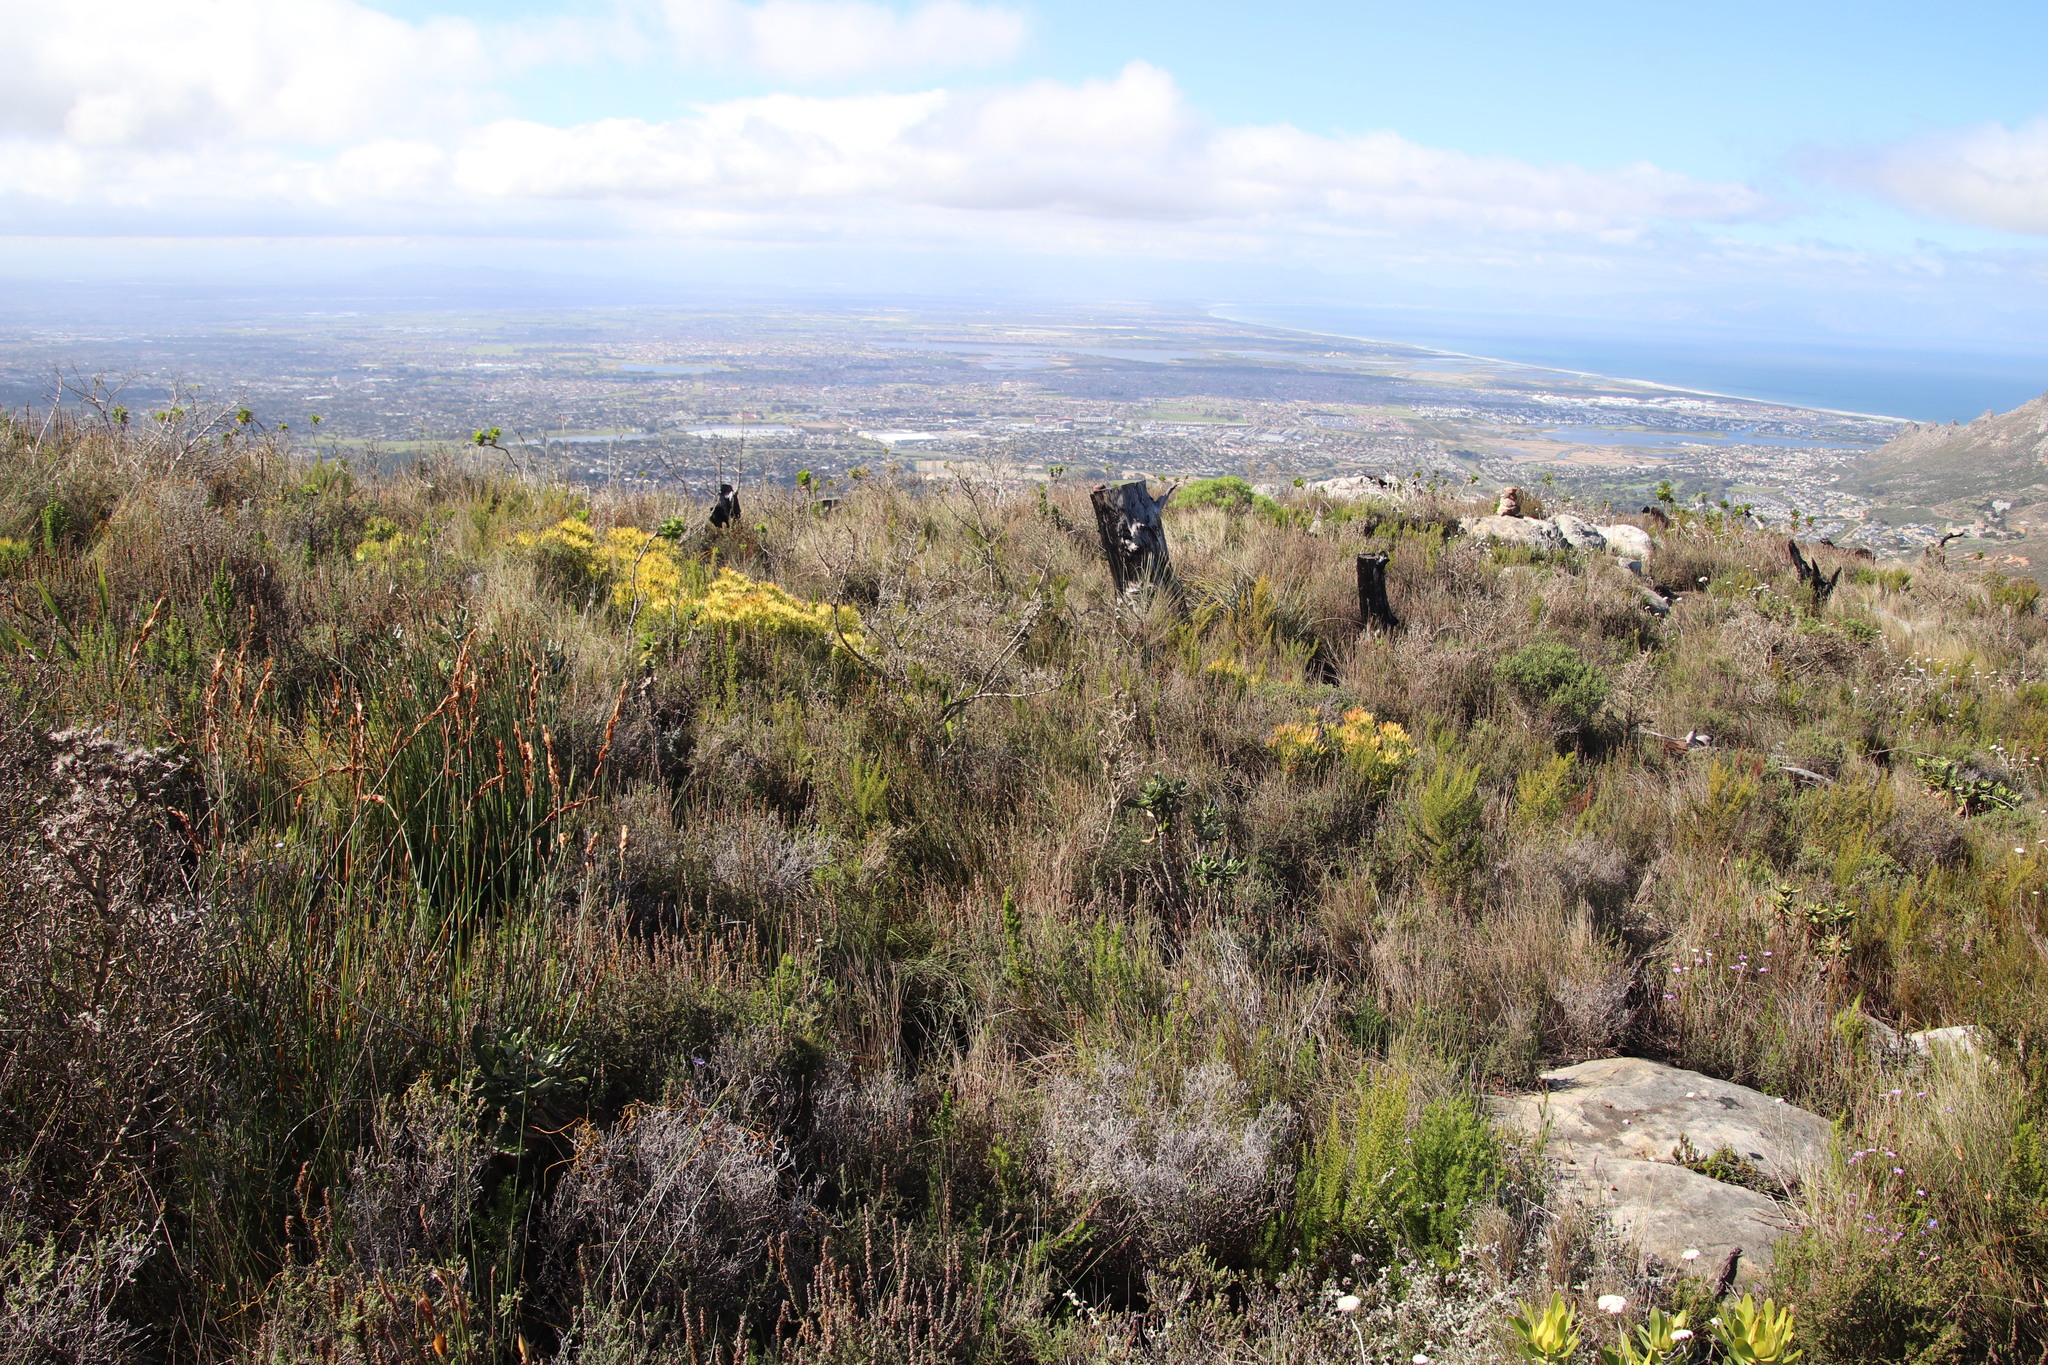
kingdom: Plantae
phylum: Tracheophyta
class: Magnoliopsida
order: Proteales
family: Proteaceae
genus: Leucadendron
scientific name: Leucadendron salignum
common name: Common sunshine conebush
